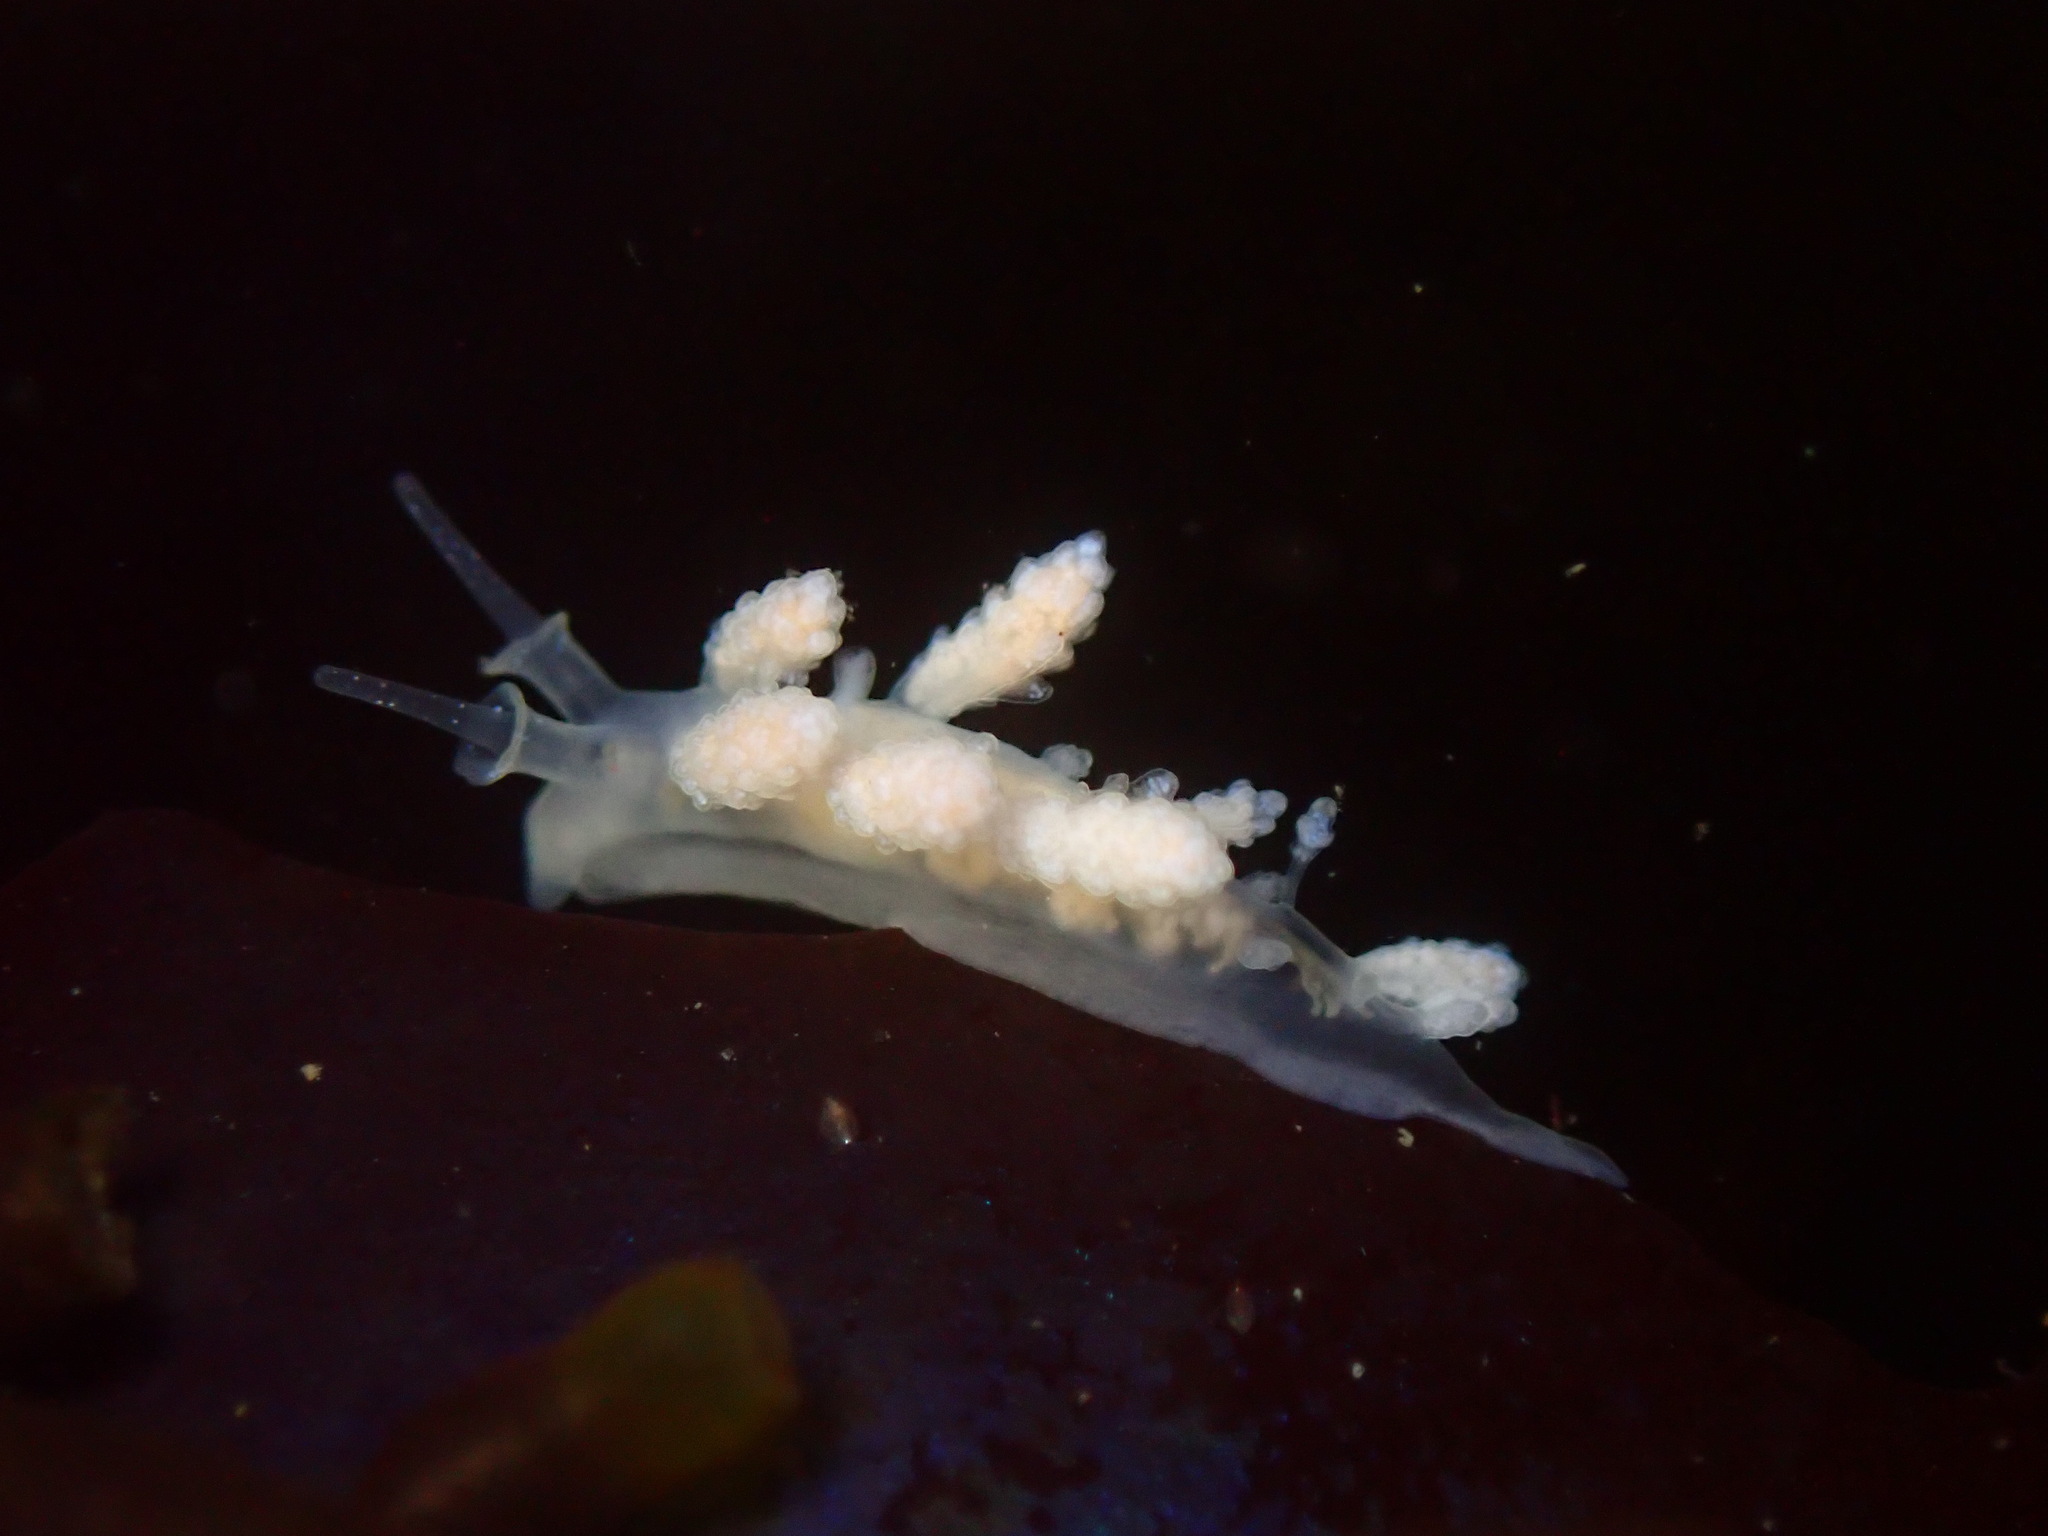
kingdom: Animalia
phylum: Mollusca
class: Gastropoda
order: Nudibranchia
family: Dotidae
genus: Doto
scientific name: Doto amyra
